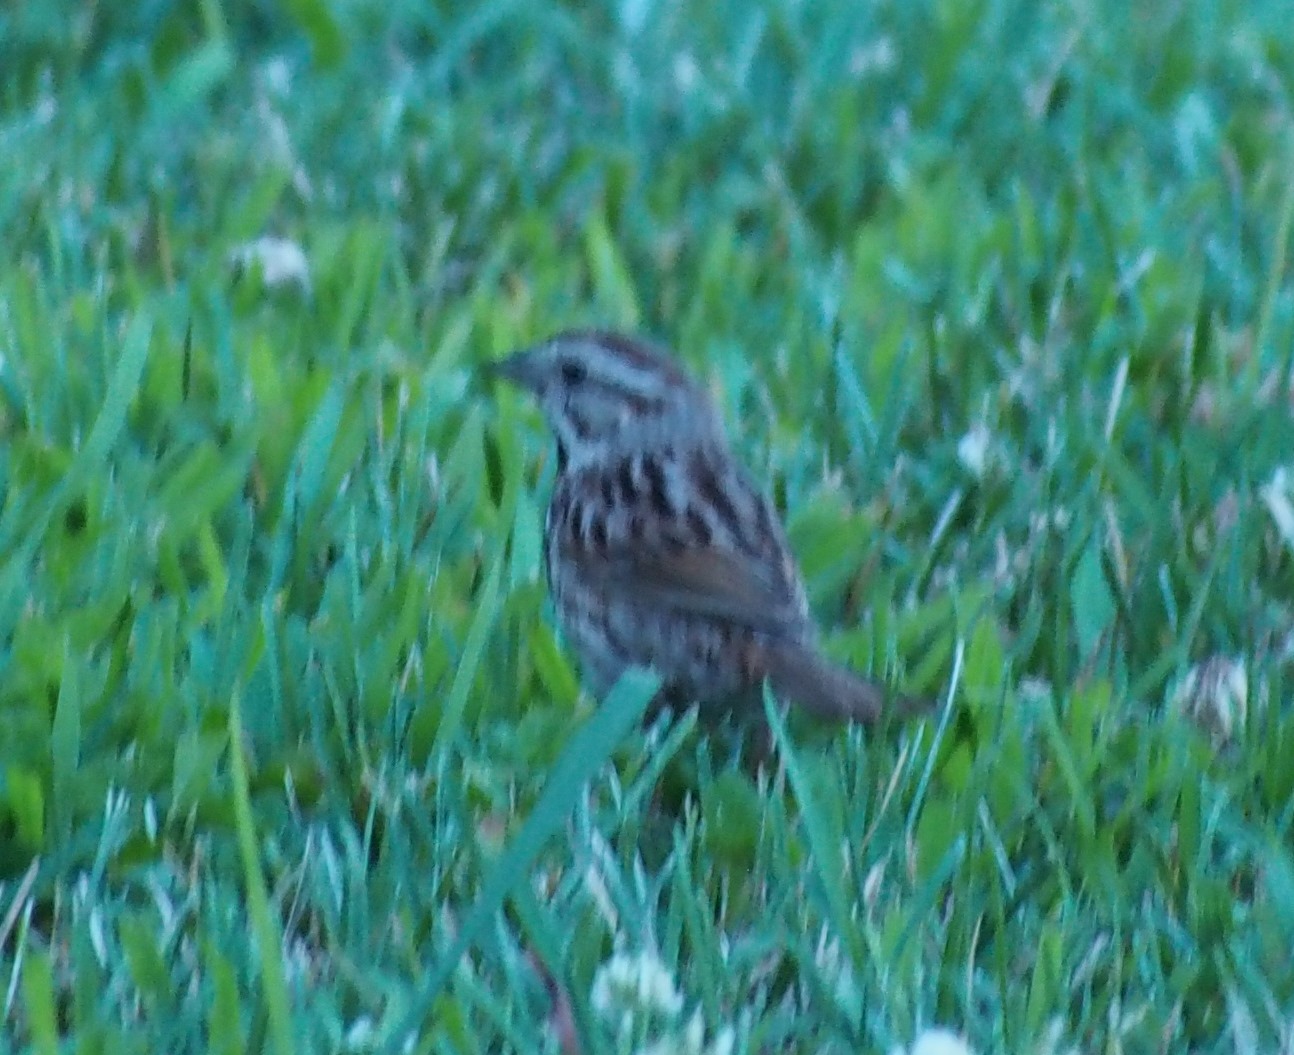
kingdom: Animalia
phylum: Chordata
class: Aves
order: Passeriformes
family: Passerellidae
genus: Melospiza
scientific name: Melospiza melodia
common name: Song sparrow
